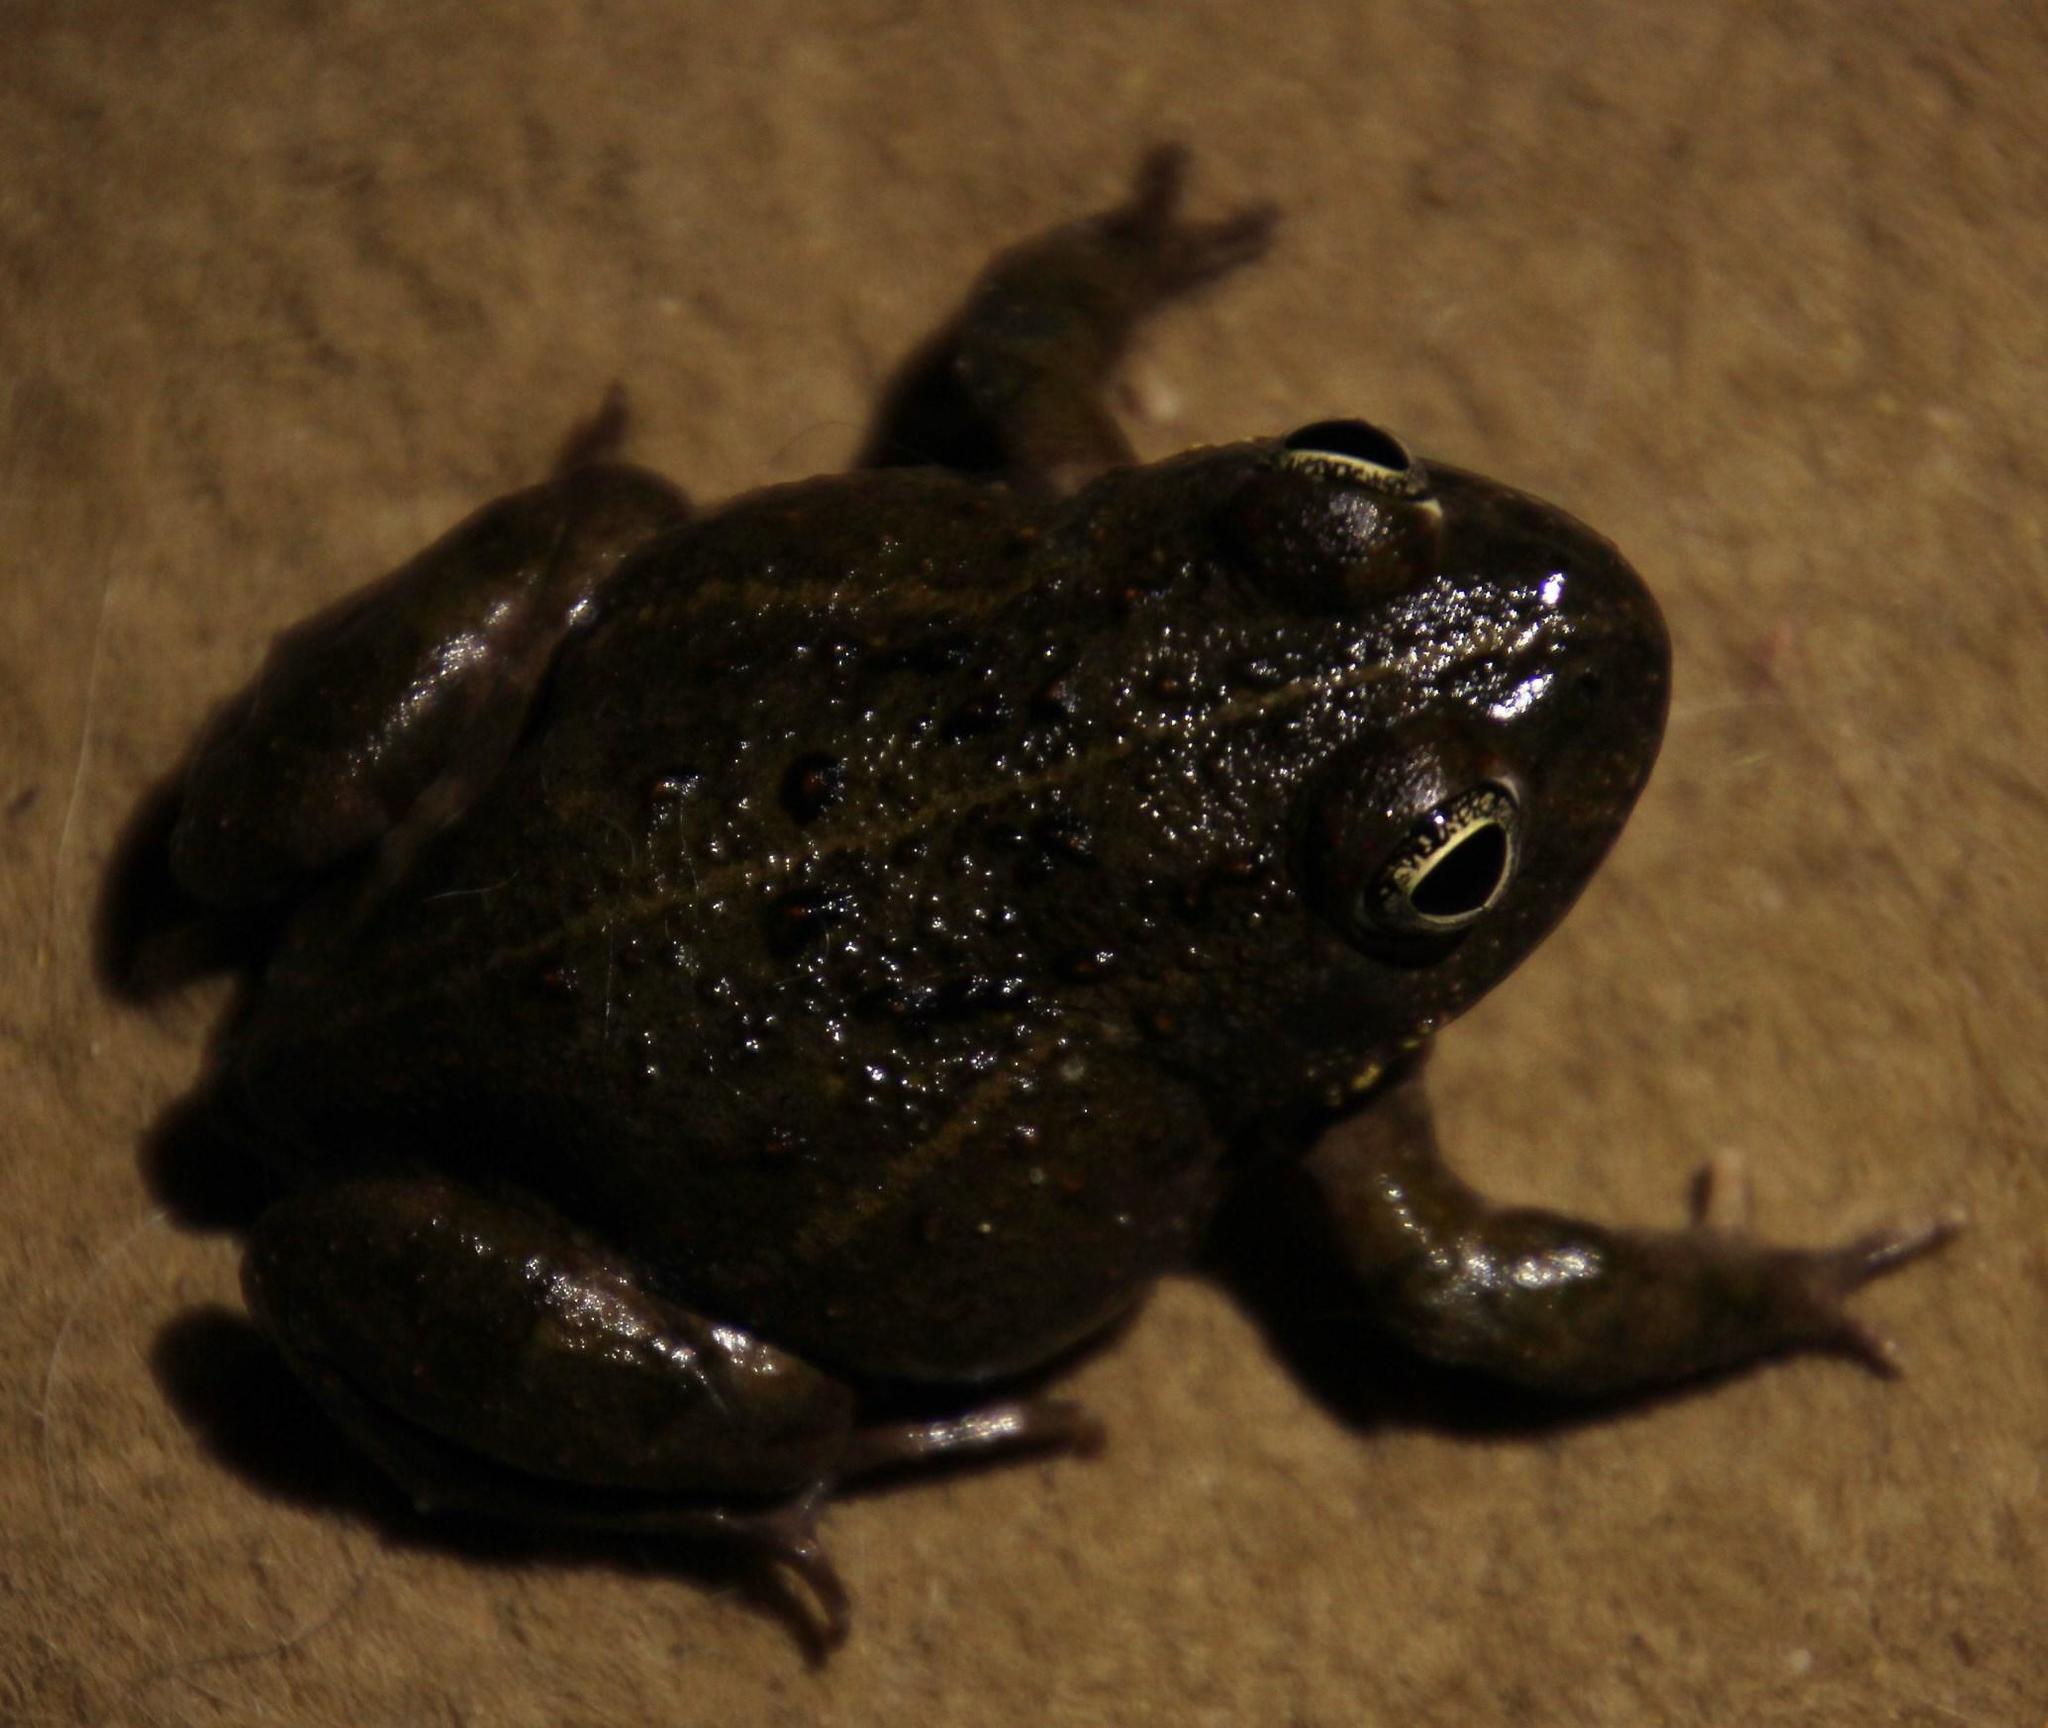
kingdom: Animalia
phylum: Chordata
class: Amphibia
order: Anura
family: Pyxicephalidae
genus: Tomopterna
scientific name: Tomopterna delalandii
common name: Delalande's burrowing bullfrog
